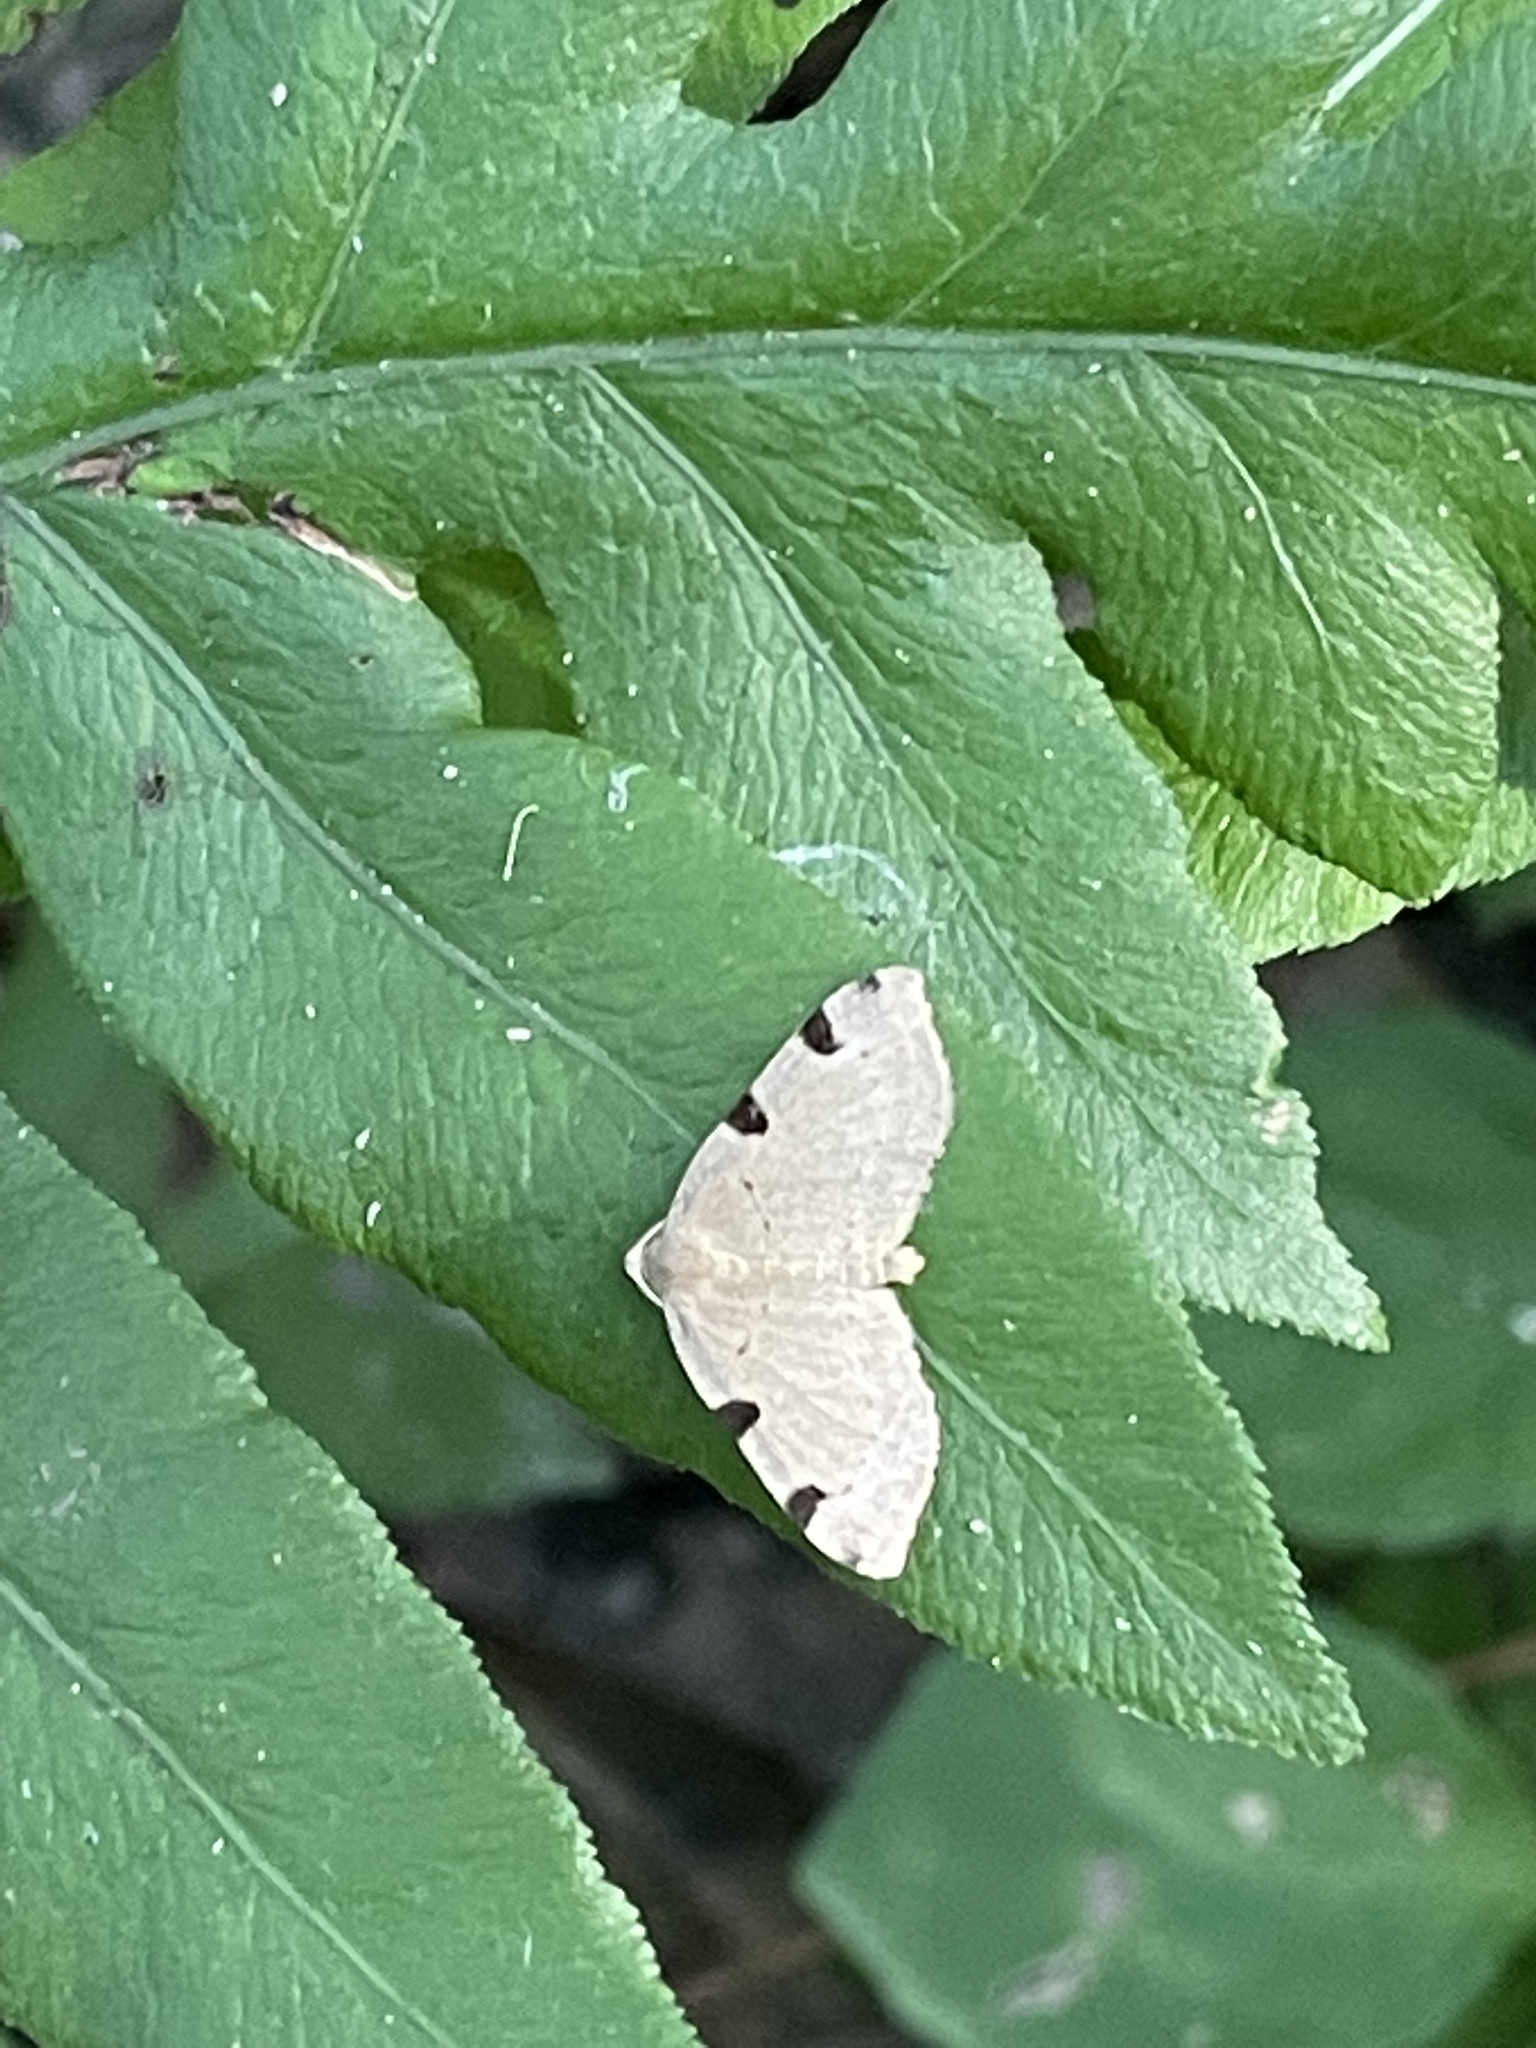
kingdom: Animalia
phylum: Arthropoda
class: Insecta
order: Lepidoptera
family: Geometridae
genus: Heterophleps
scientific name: Heterophleps triguttaria
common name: Three-spotted fillip
